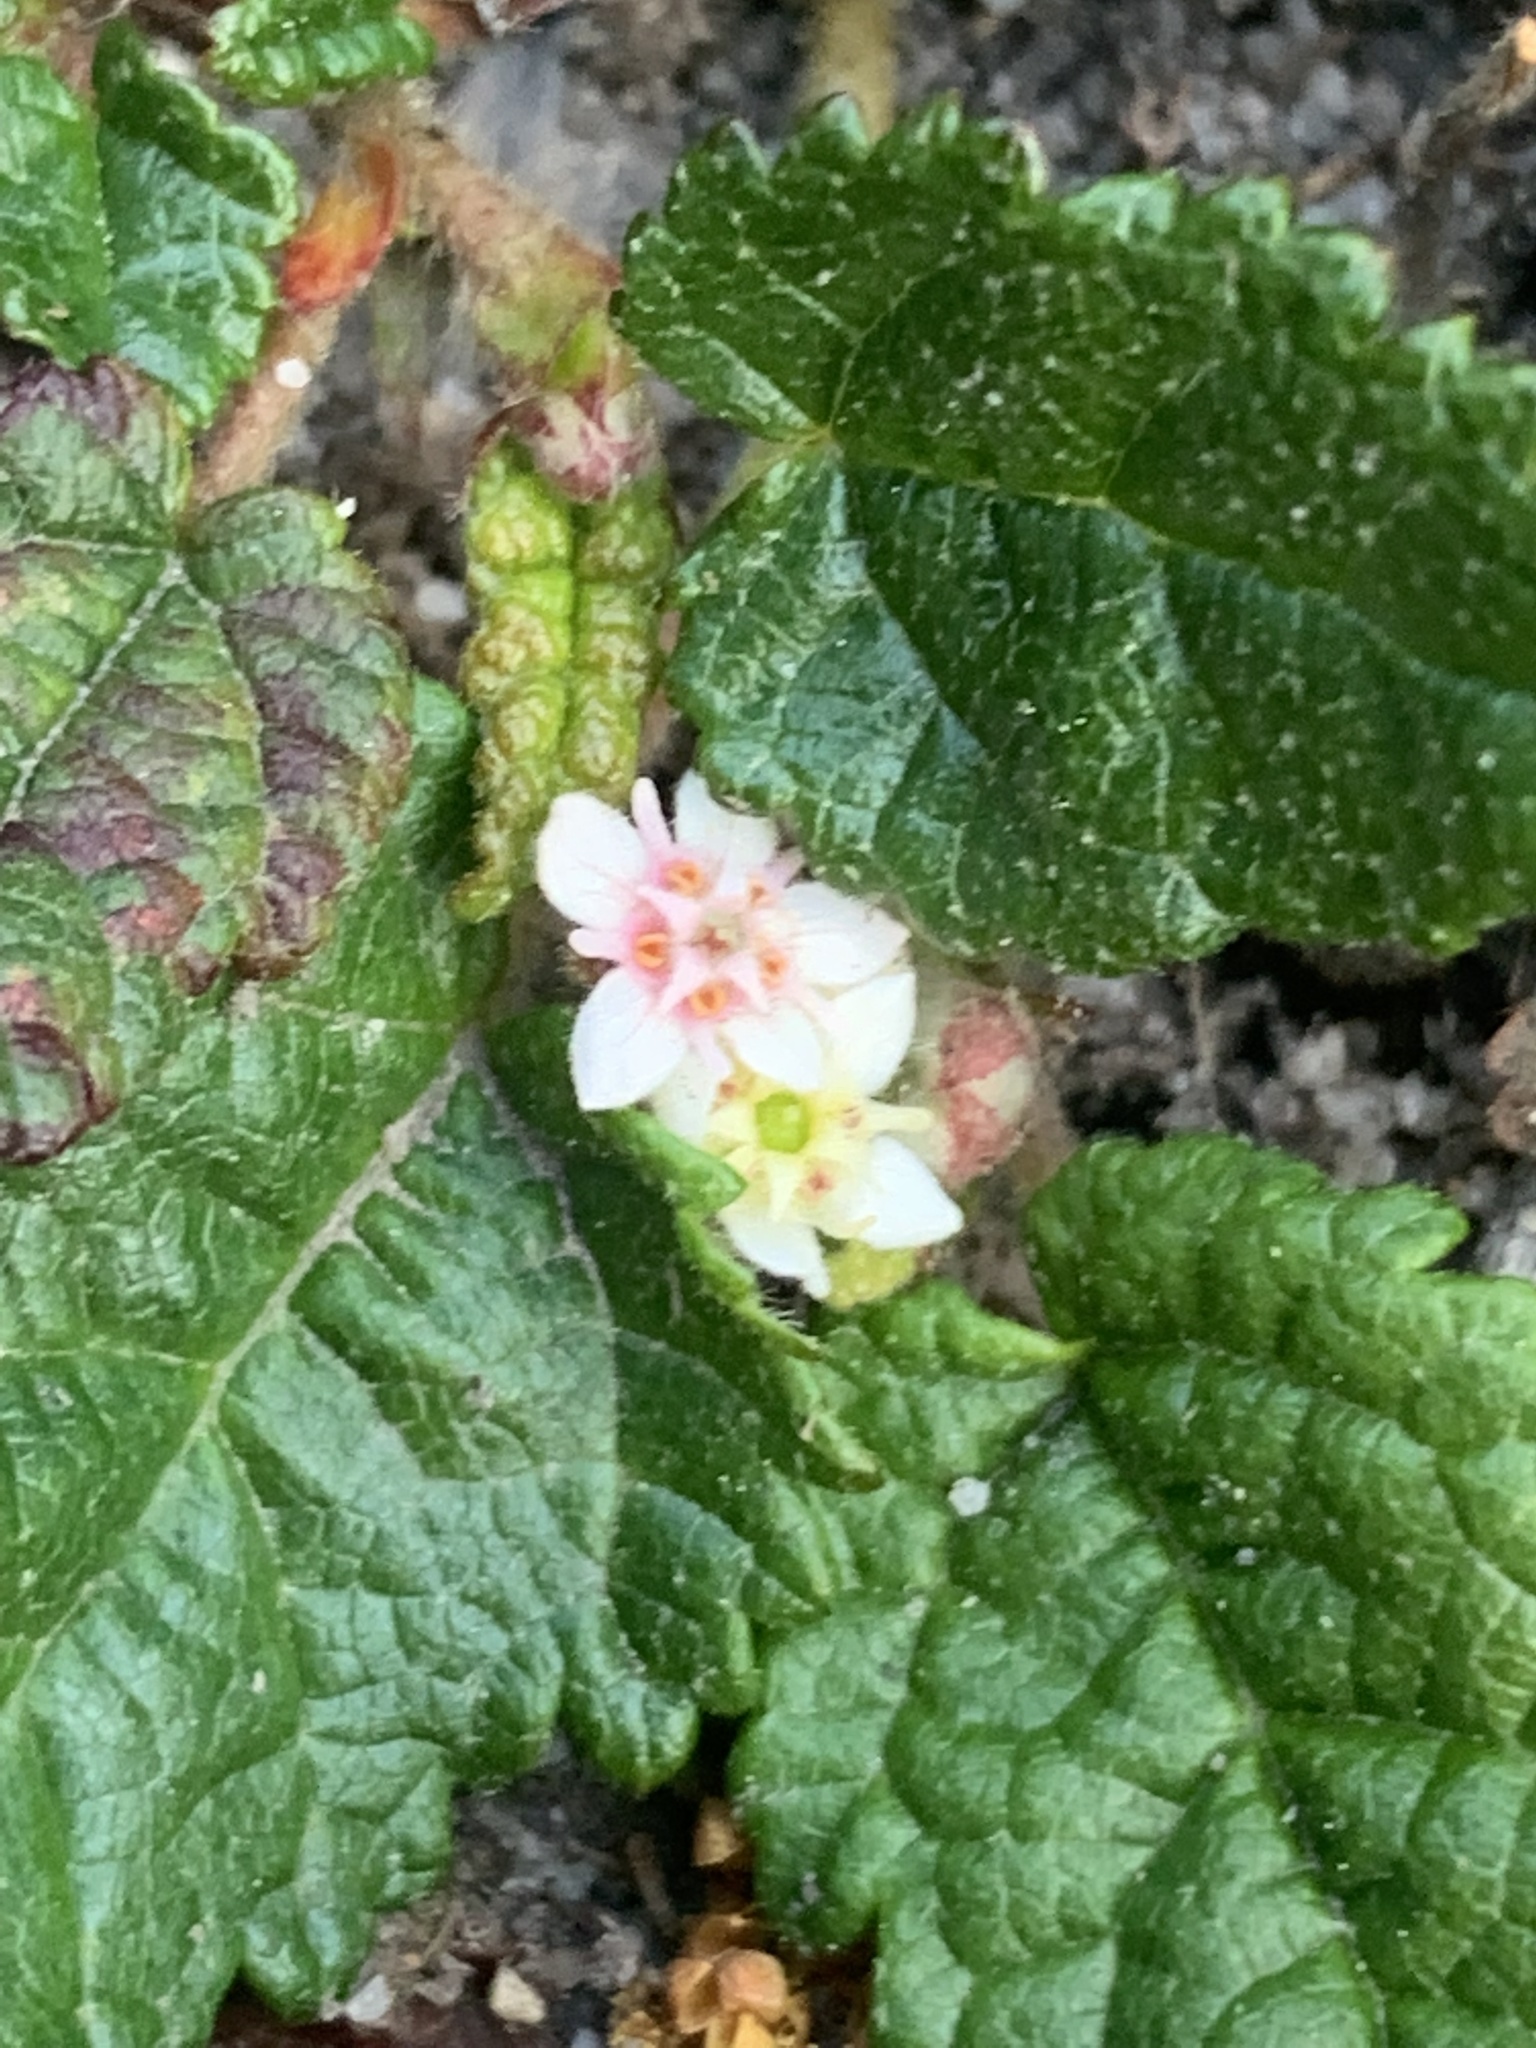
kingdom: Plantae
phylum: Tracheophyta
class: Magnoliopsida
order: Malvales
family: Malvaceae
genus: Commersonia
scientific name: Commersonia prostrata
